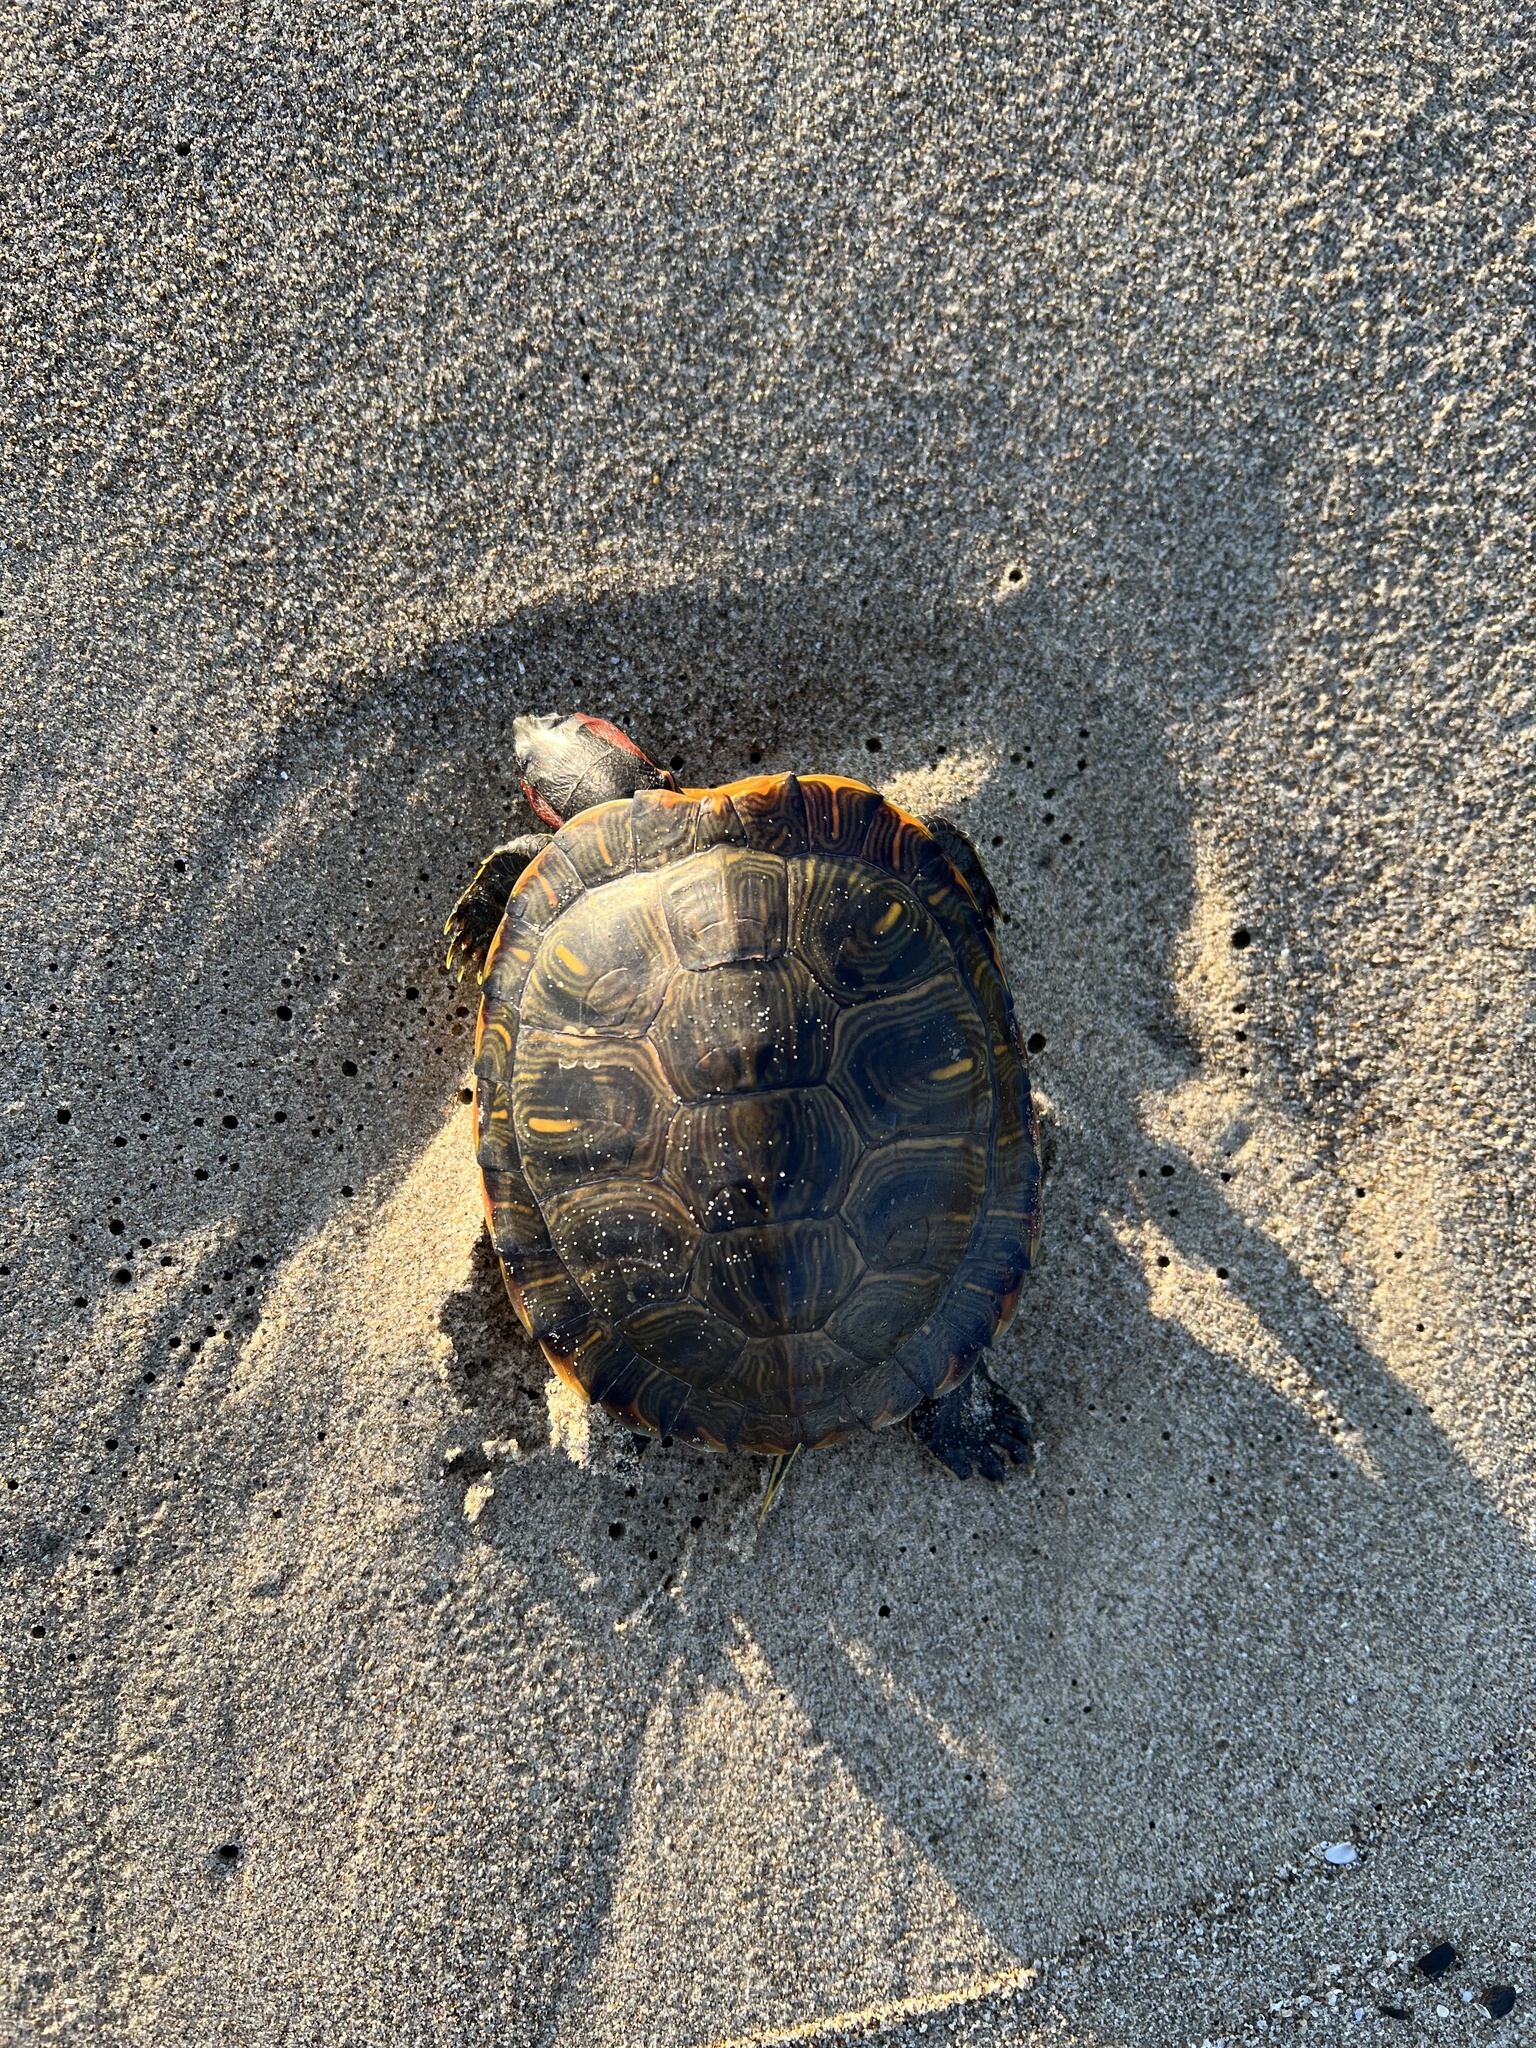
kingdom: Animalia
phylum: Chordata
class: Testudines
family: Emydidae
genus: Trachemys
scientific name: Trachemys scripta
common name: Slider
